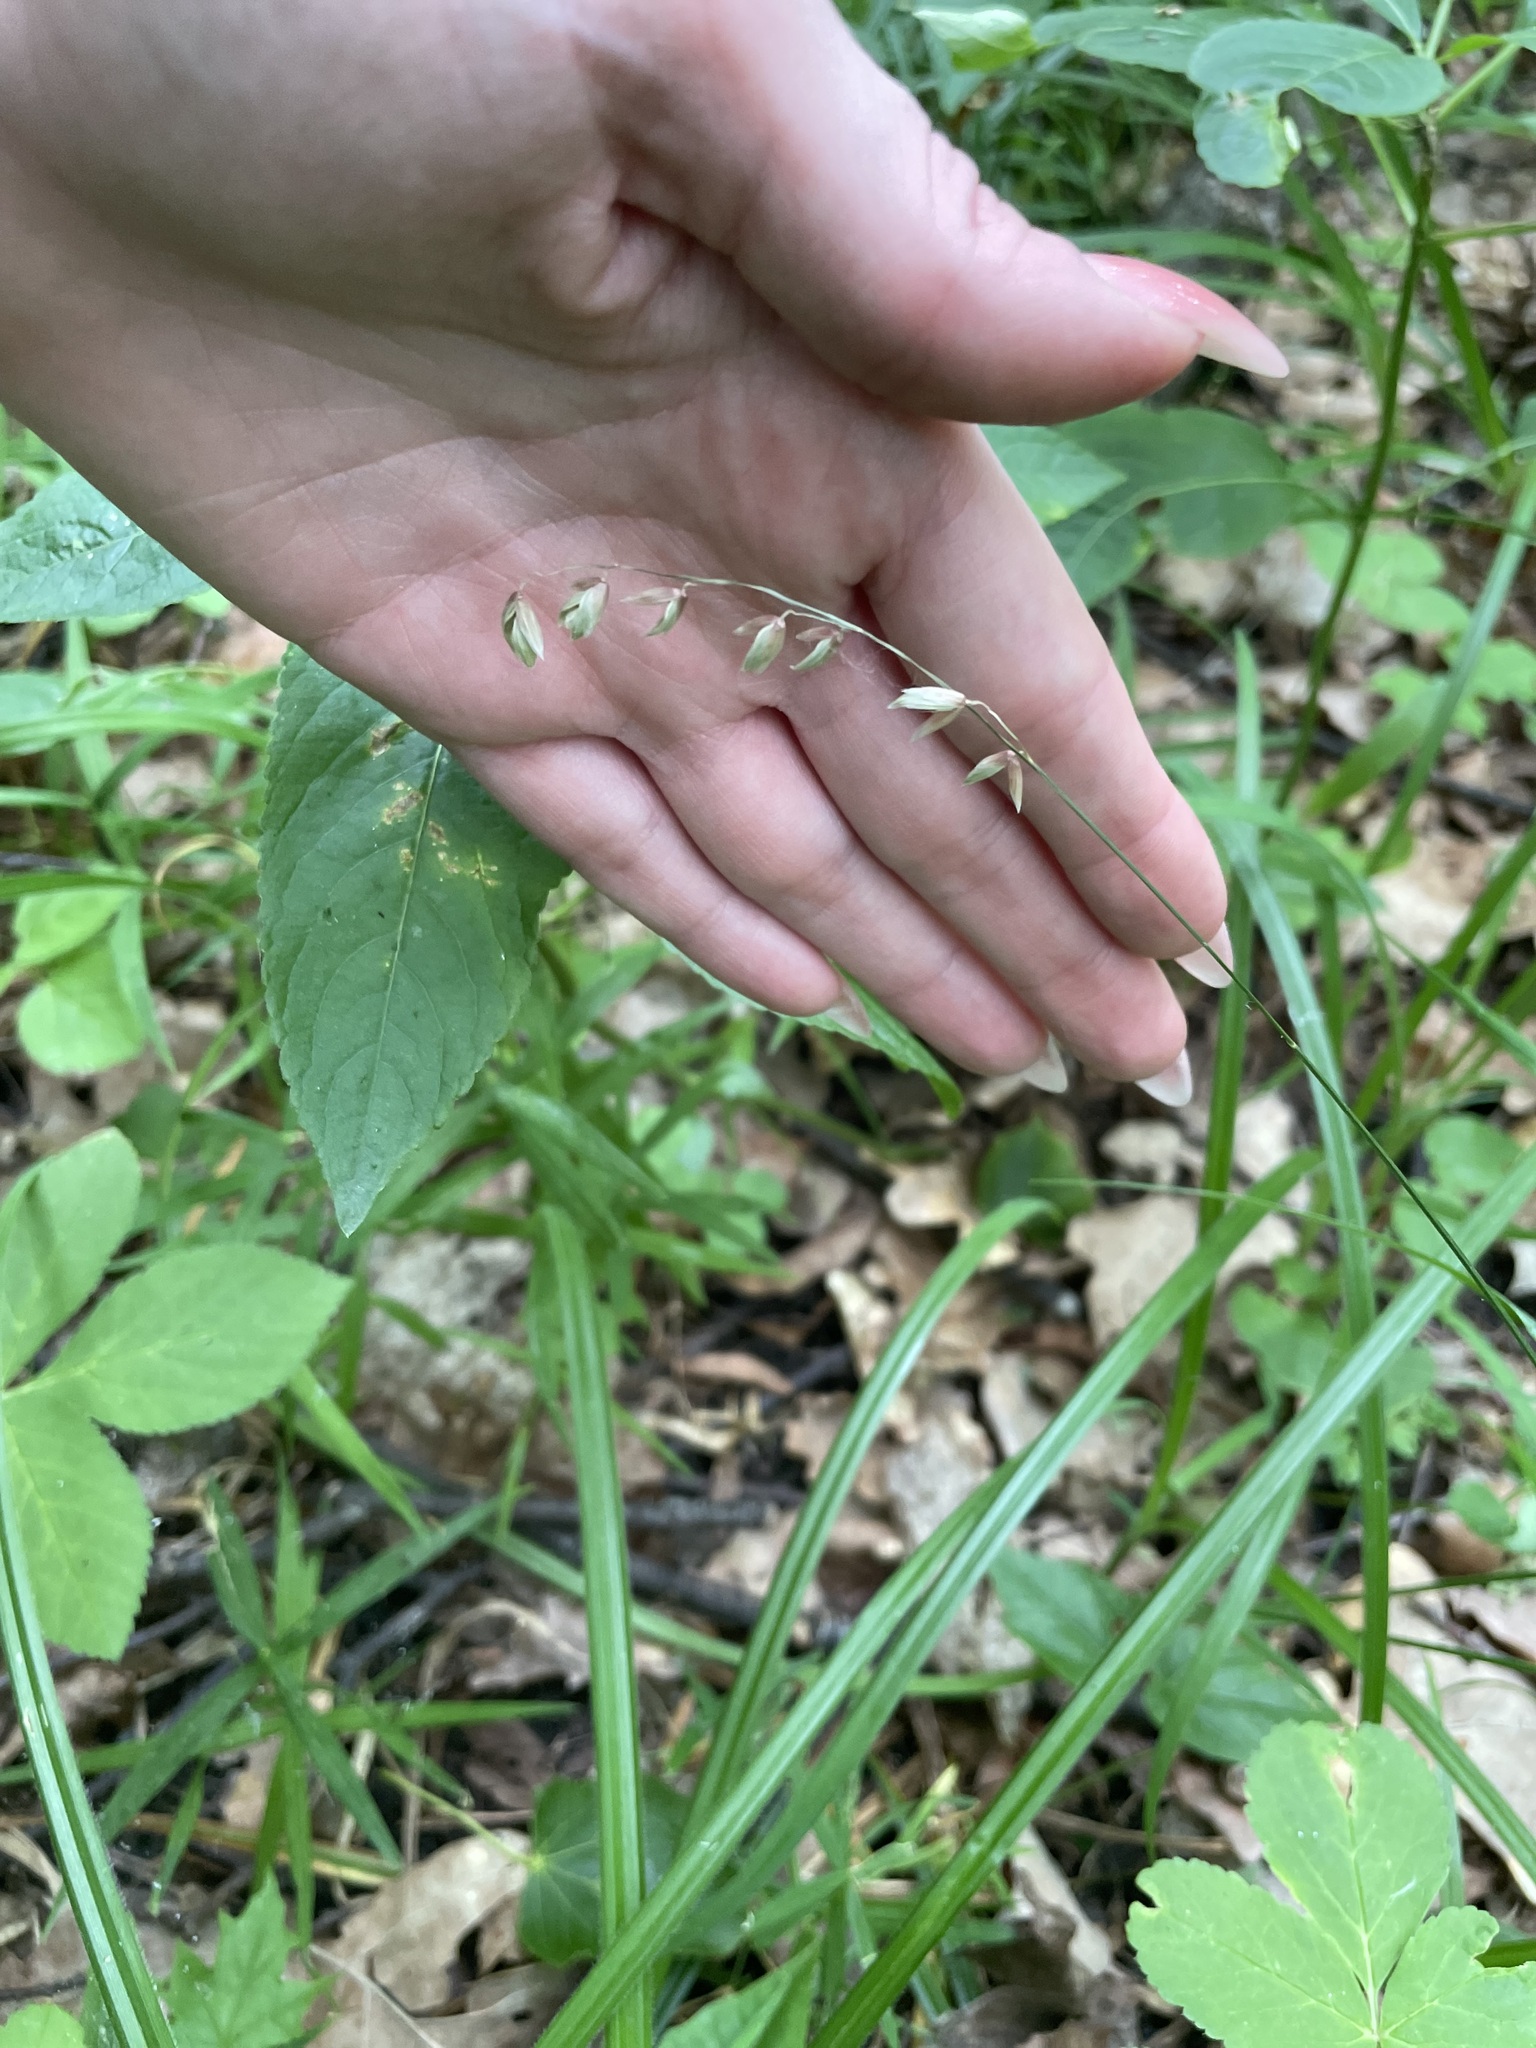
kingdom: Plantae
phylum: Tracheophyta
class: Liliopsida
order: Poales
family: Poaceae
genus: Melica
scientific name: Melica nutans
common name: Mountain melick
